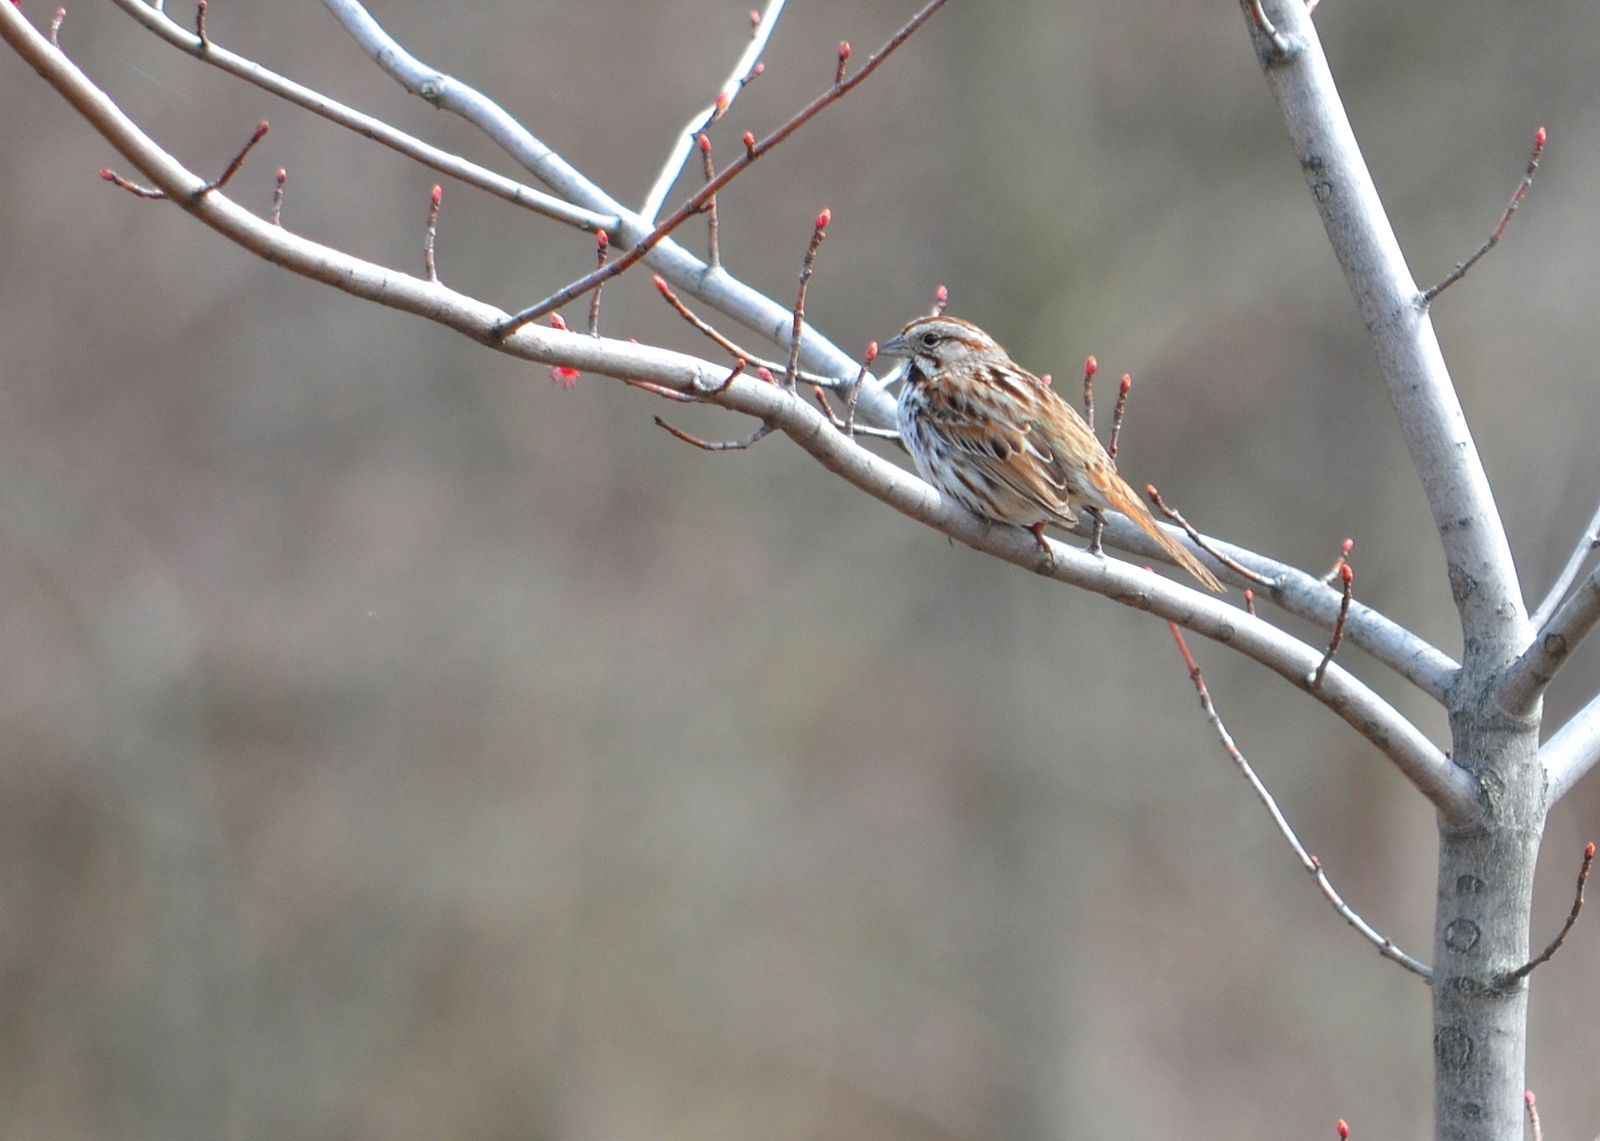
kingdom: Animalia
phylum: Chordata
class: Aves
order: Passeriformes
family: Passerellidae
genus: Melospiza
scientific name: Melospiza melodia
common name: Song sparrow
